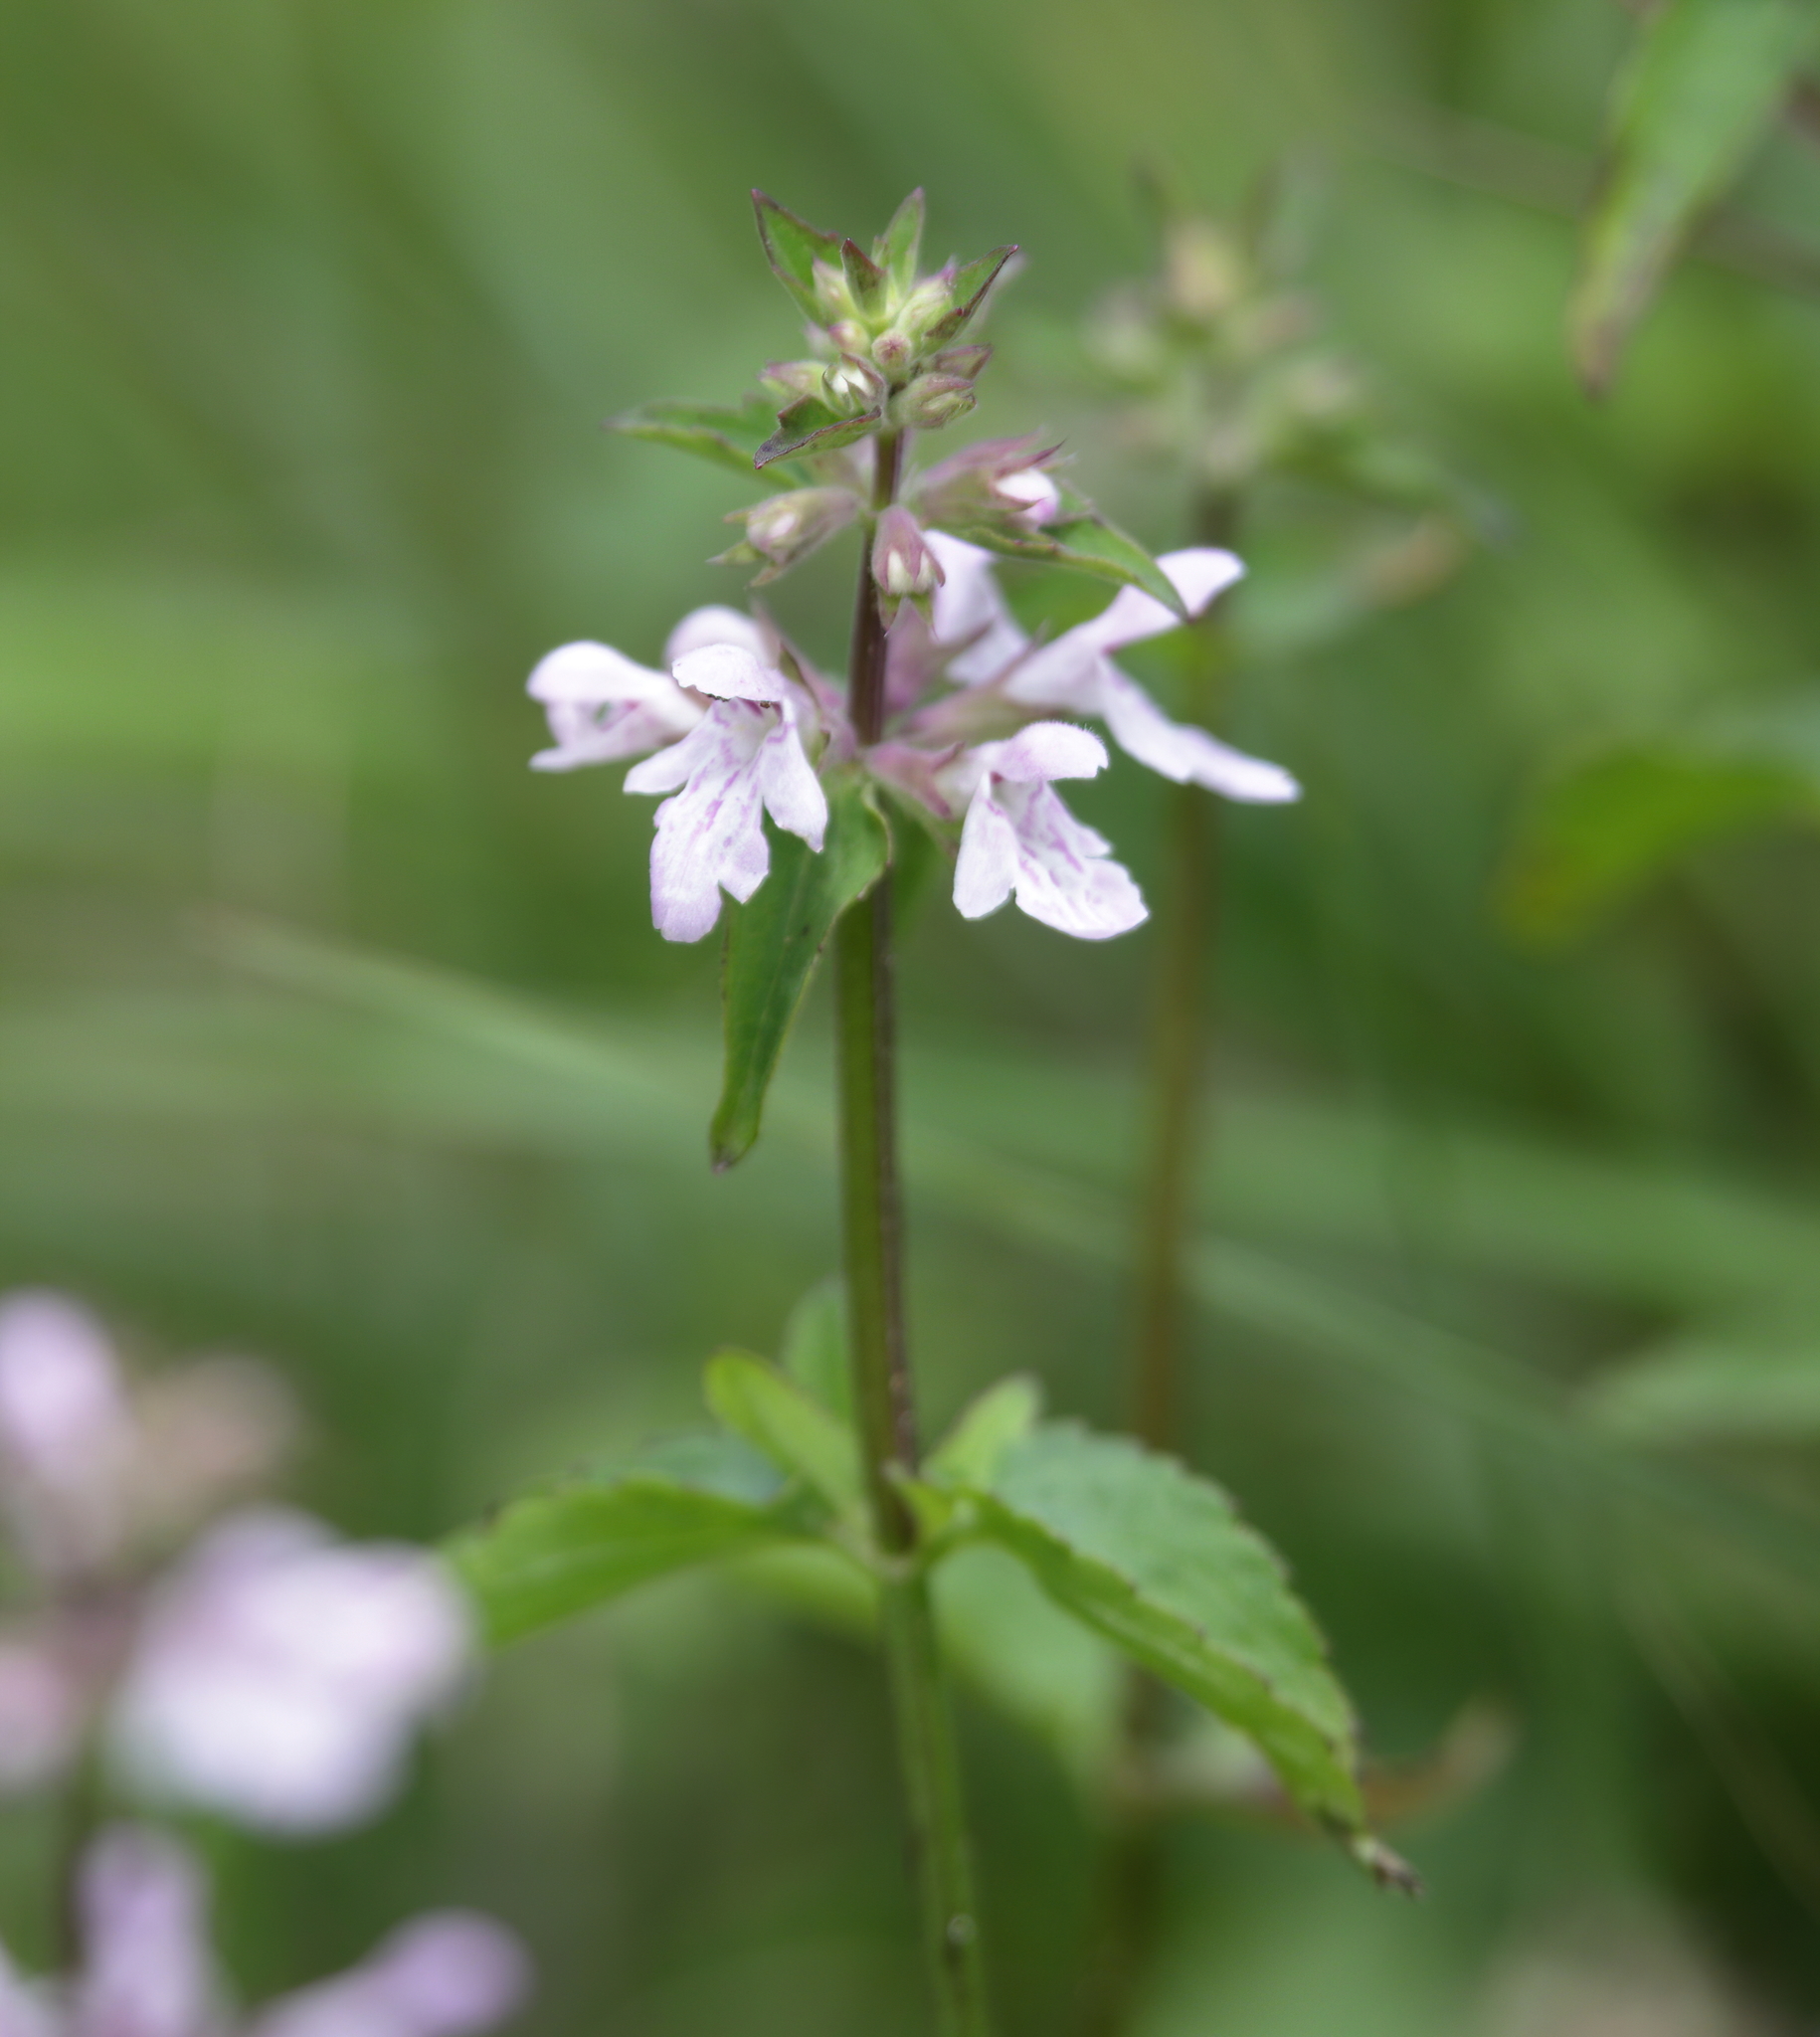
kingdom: Plantae
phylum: Tracheophyta
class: Magnoliopsida
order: Lamiales
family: Lamiaceae
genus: Stachys
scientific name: Stachys floridana
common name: Florida betony
